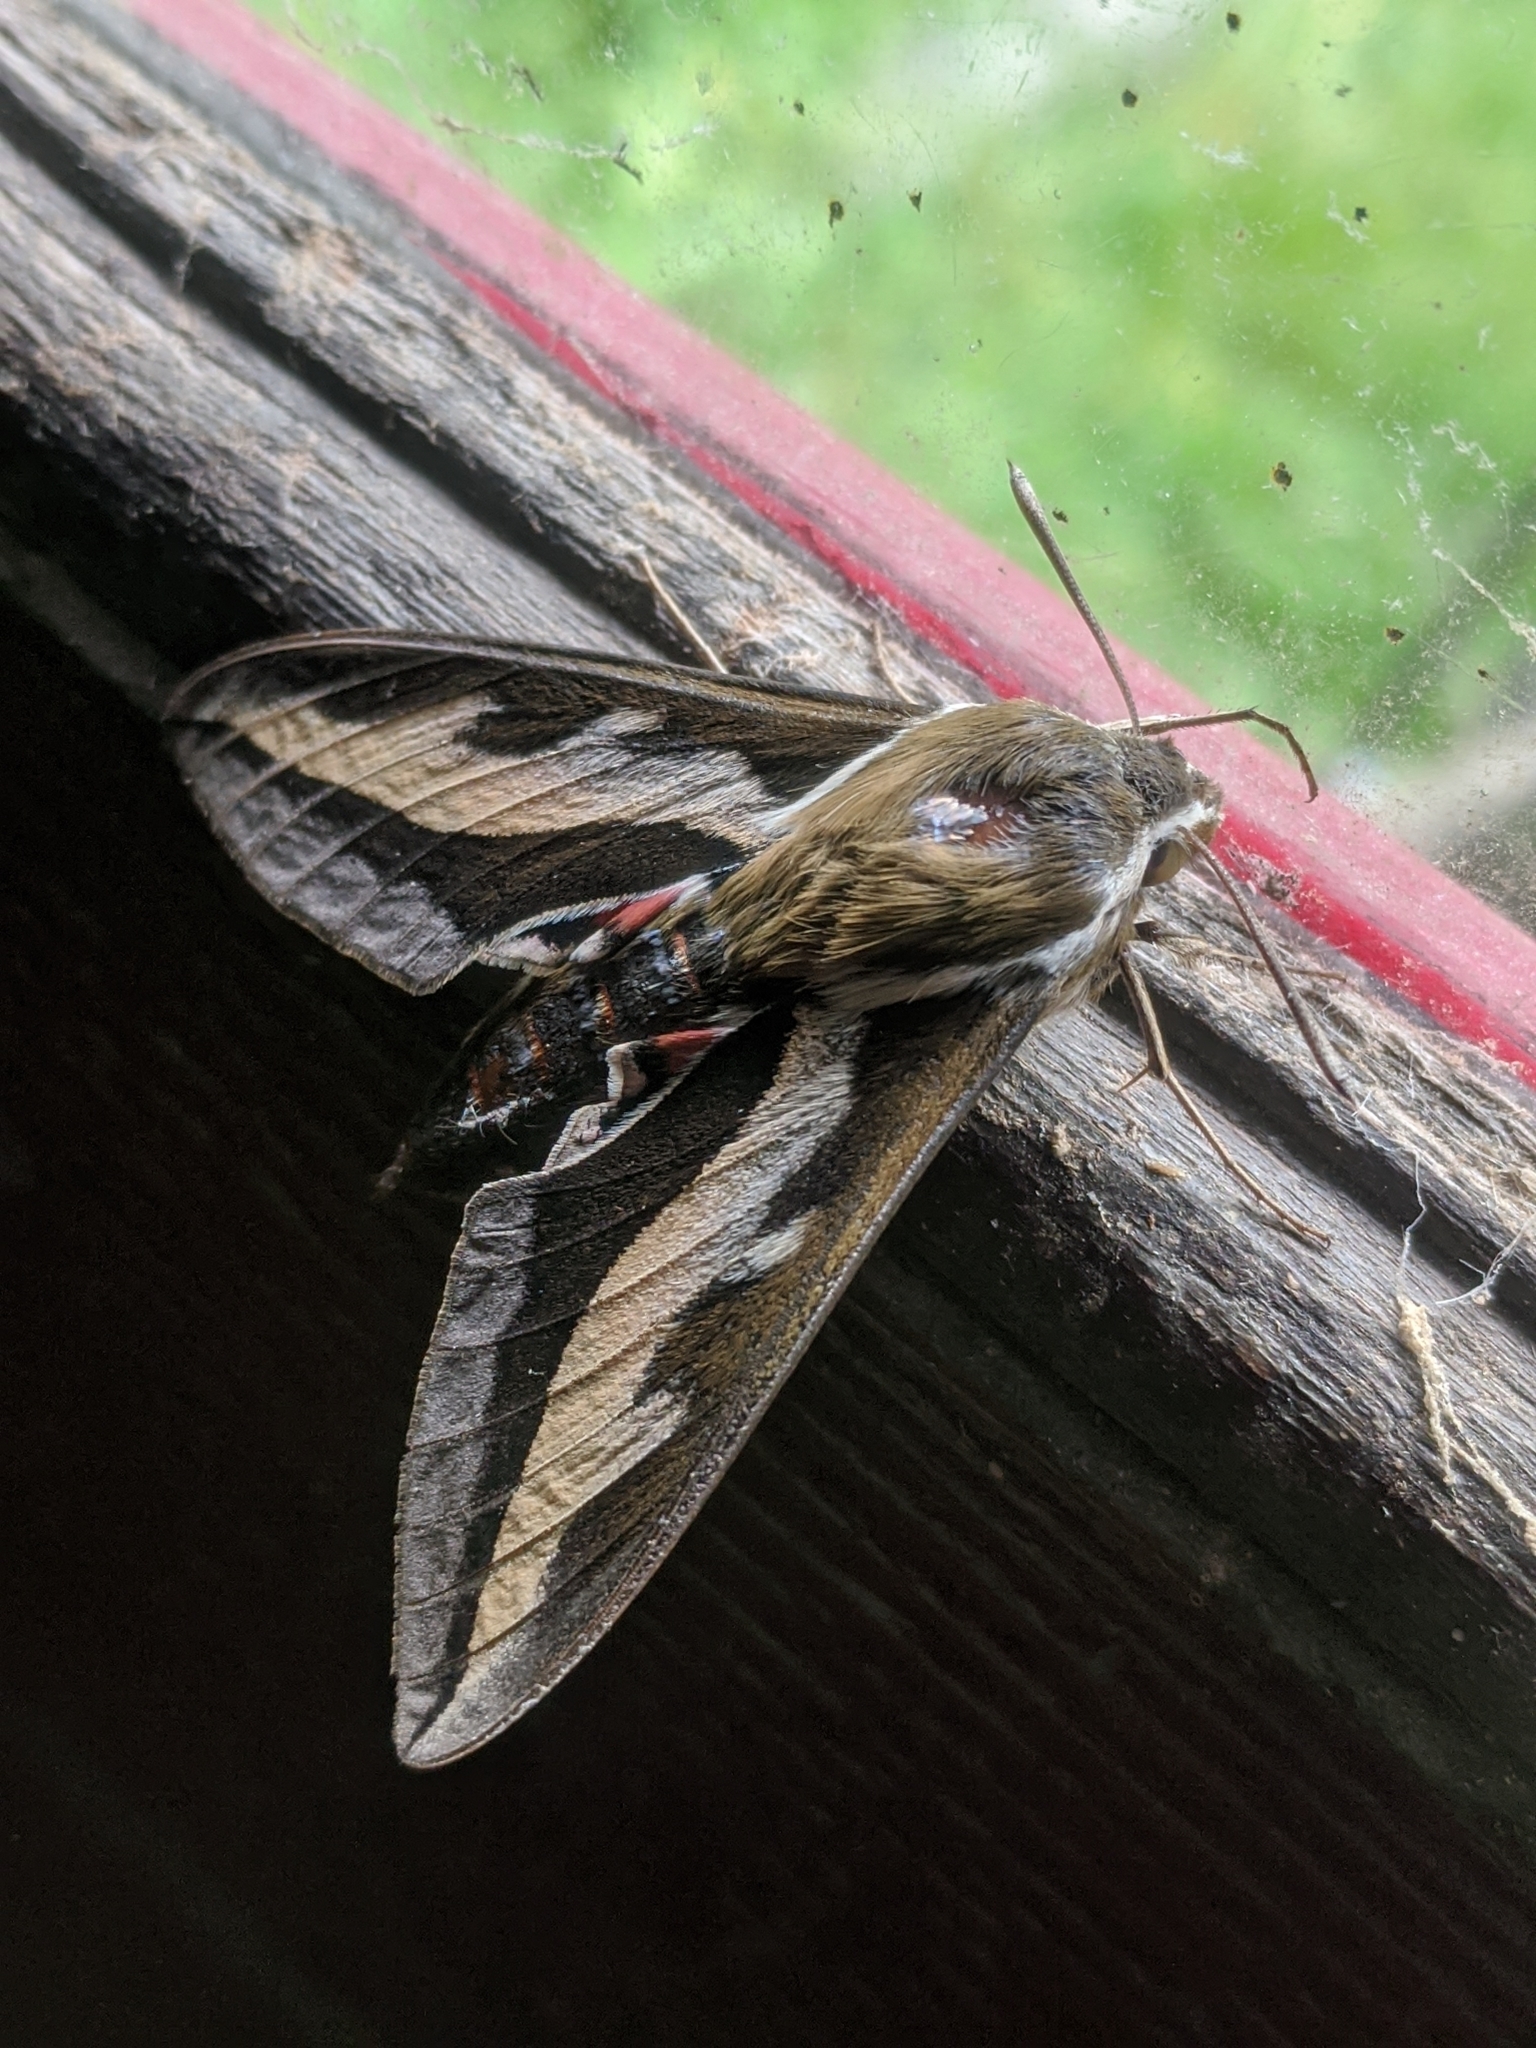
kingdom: Animalia
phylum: Arthropoda
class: Insecta
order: Lepidoptera
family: Sphingidae
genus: Hyles
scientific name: Hyles gallii
